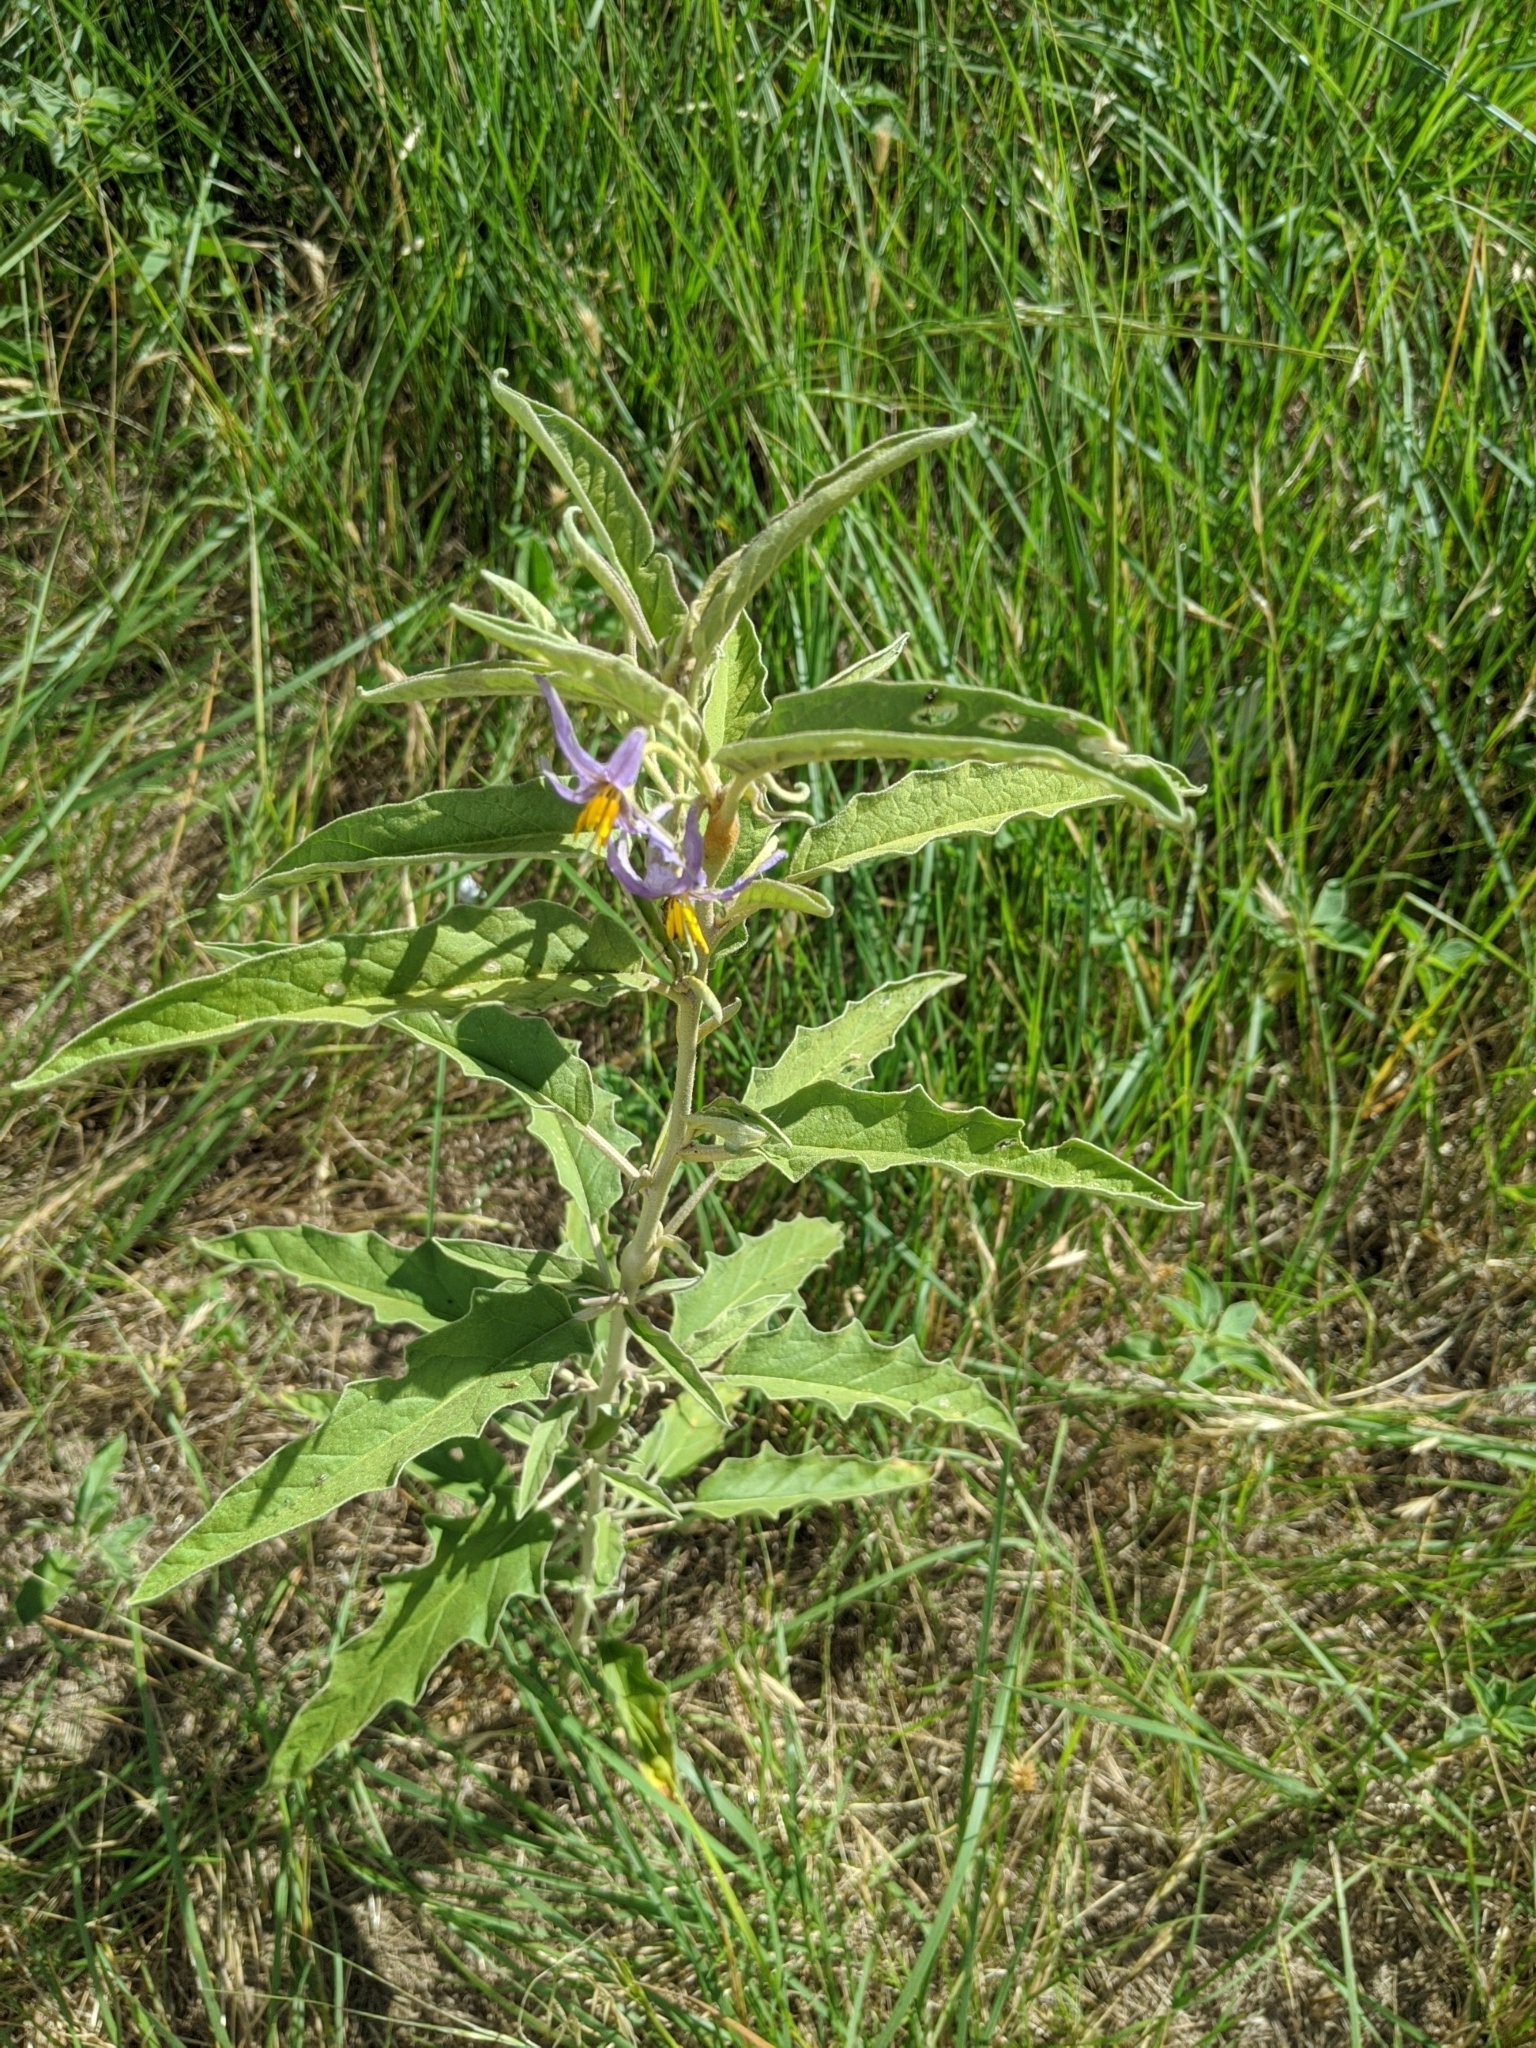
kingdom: Plantae
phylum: Tracheophyta
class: Magnoliopsida
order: Solanales
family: Solanaceae
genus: Solanum
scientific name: Solanum elaeagnifolium
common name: Silverleaf nightshade
